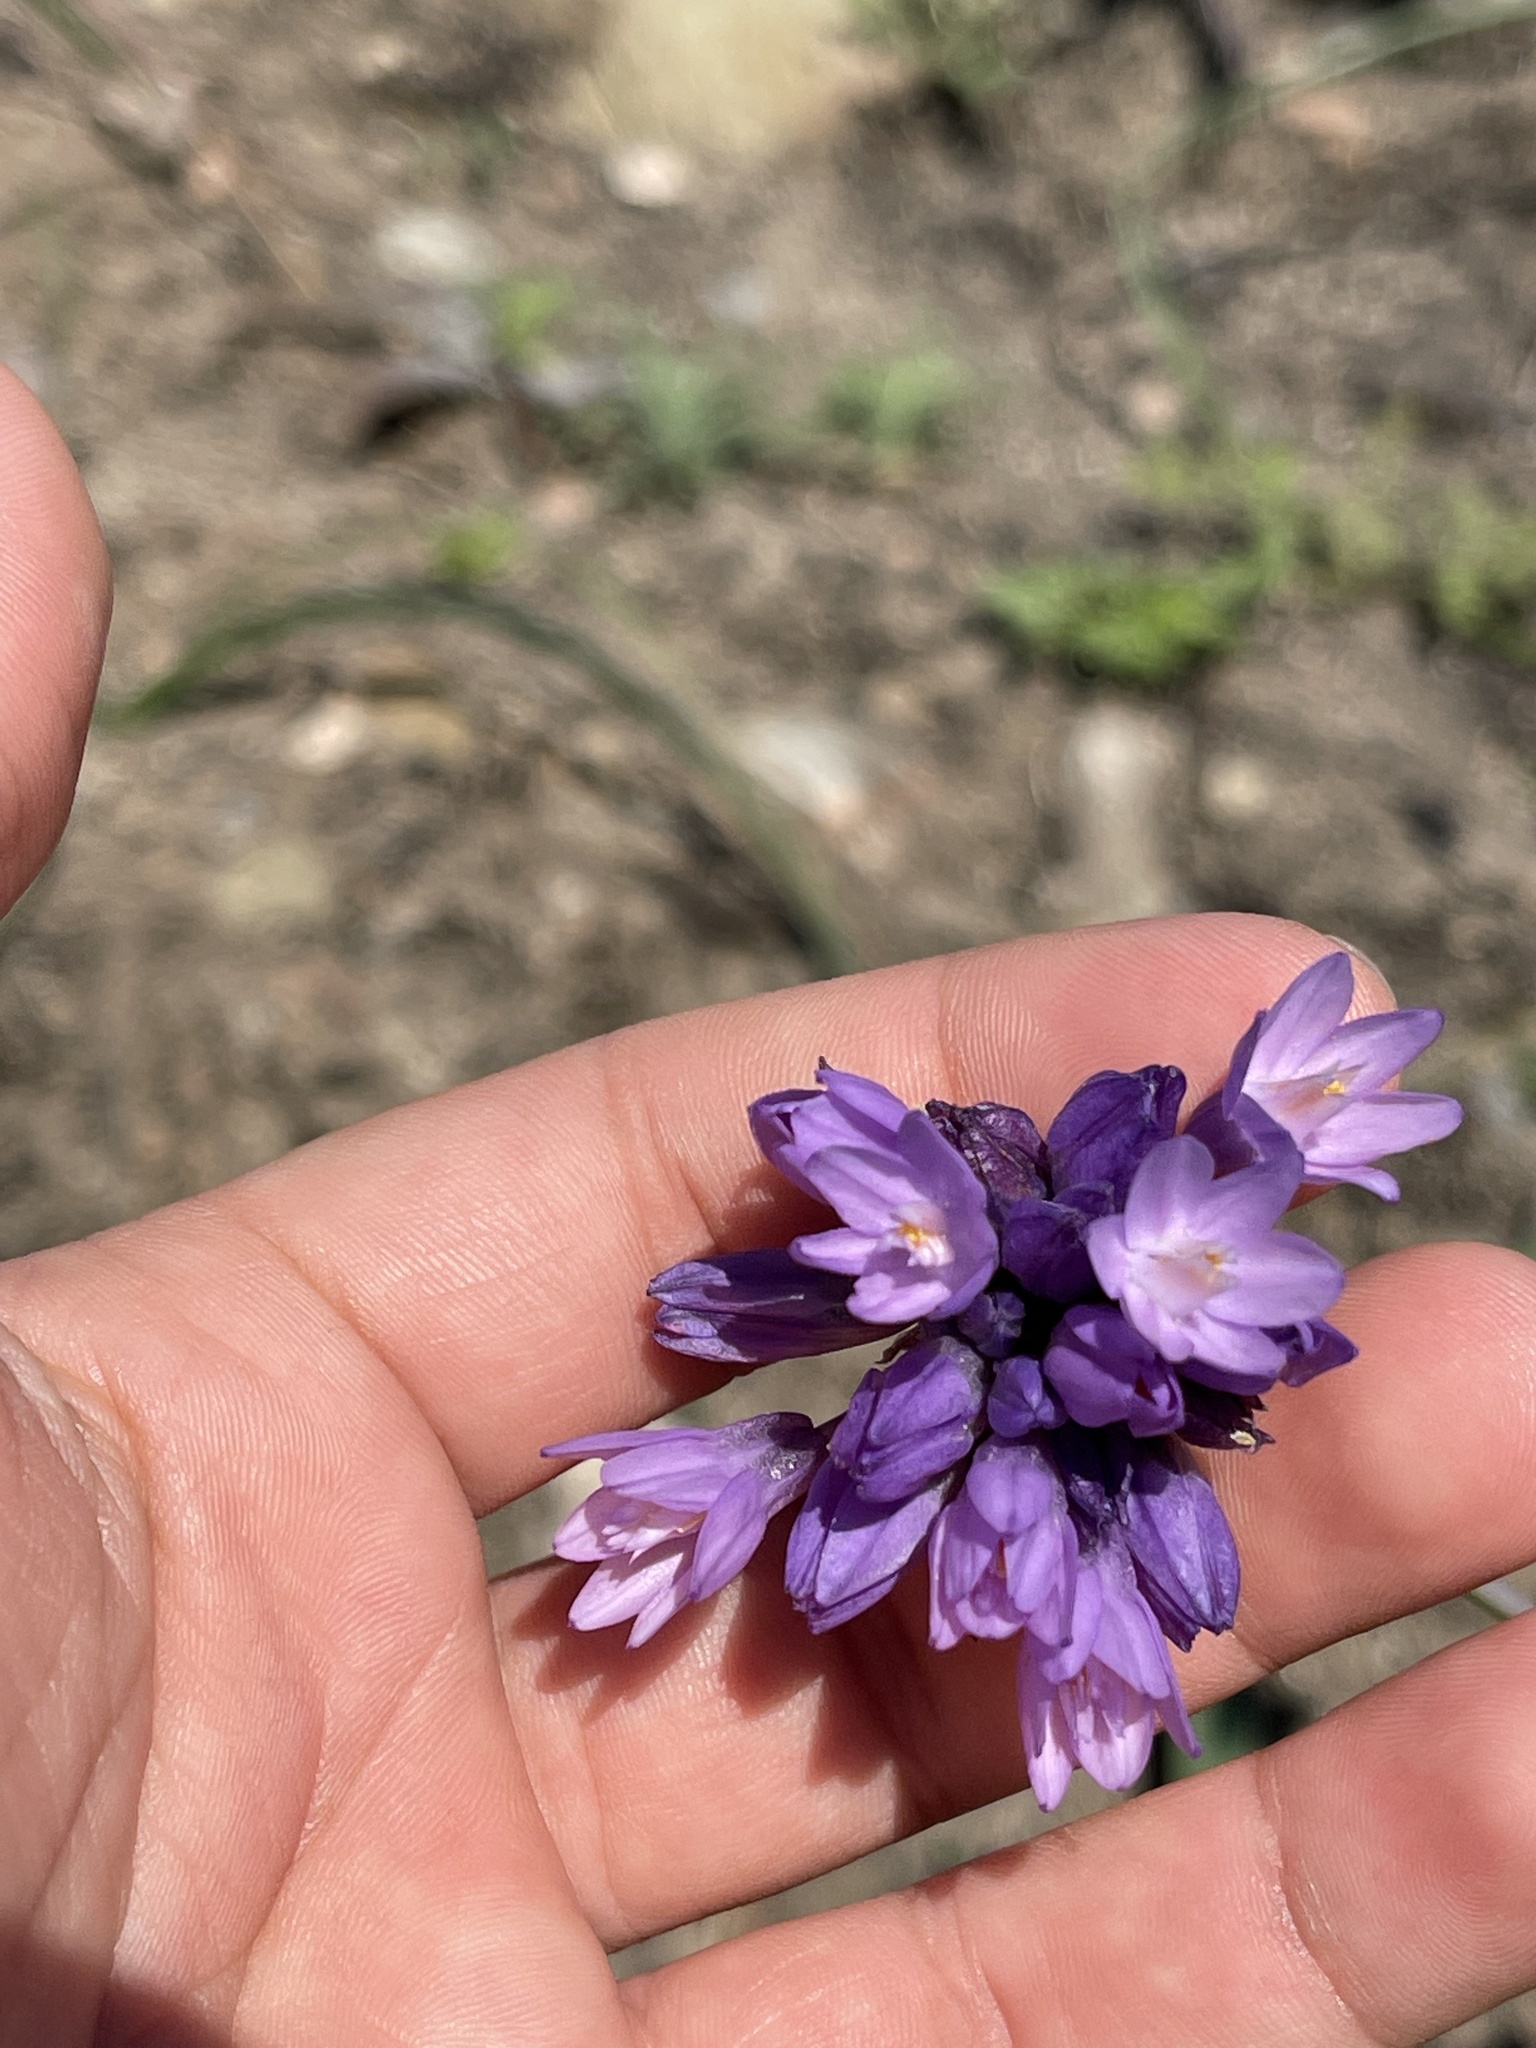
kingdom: Plantae
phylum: Tracheophyta
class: Liliopsida
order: Asparagales
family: Asparagaceae
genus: Dipterostemon
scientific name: Dipterostemon capitatus
